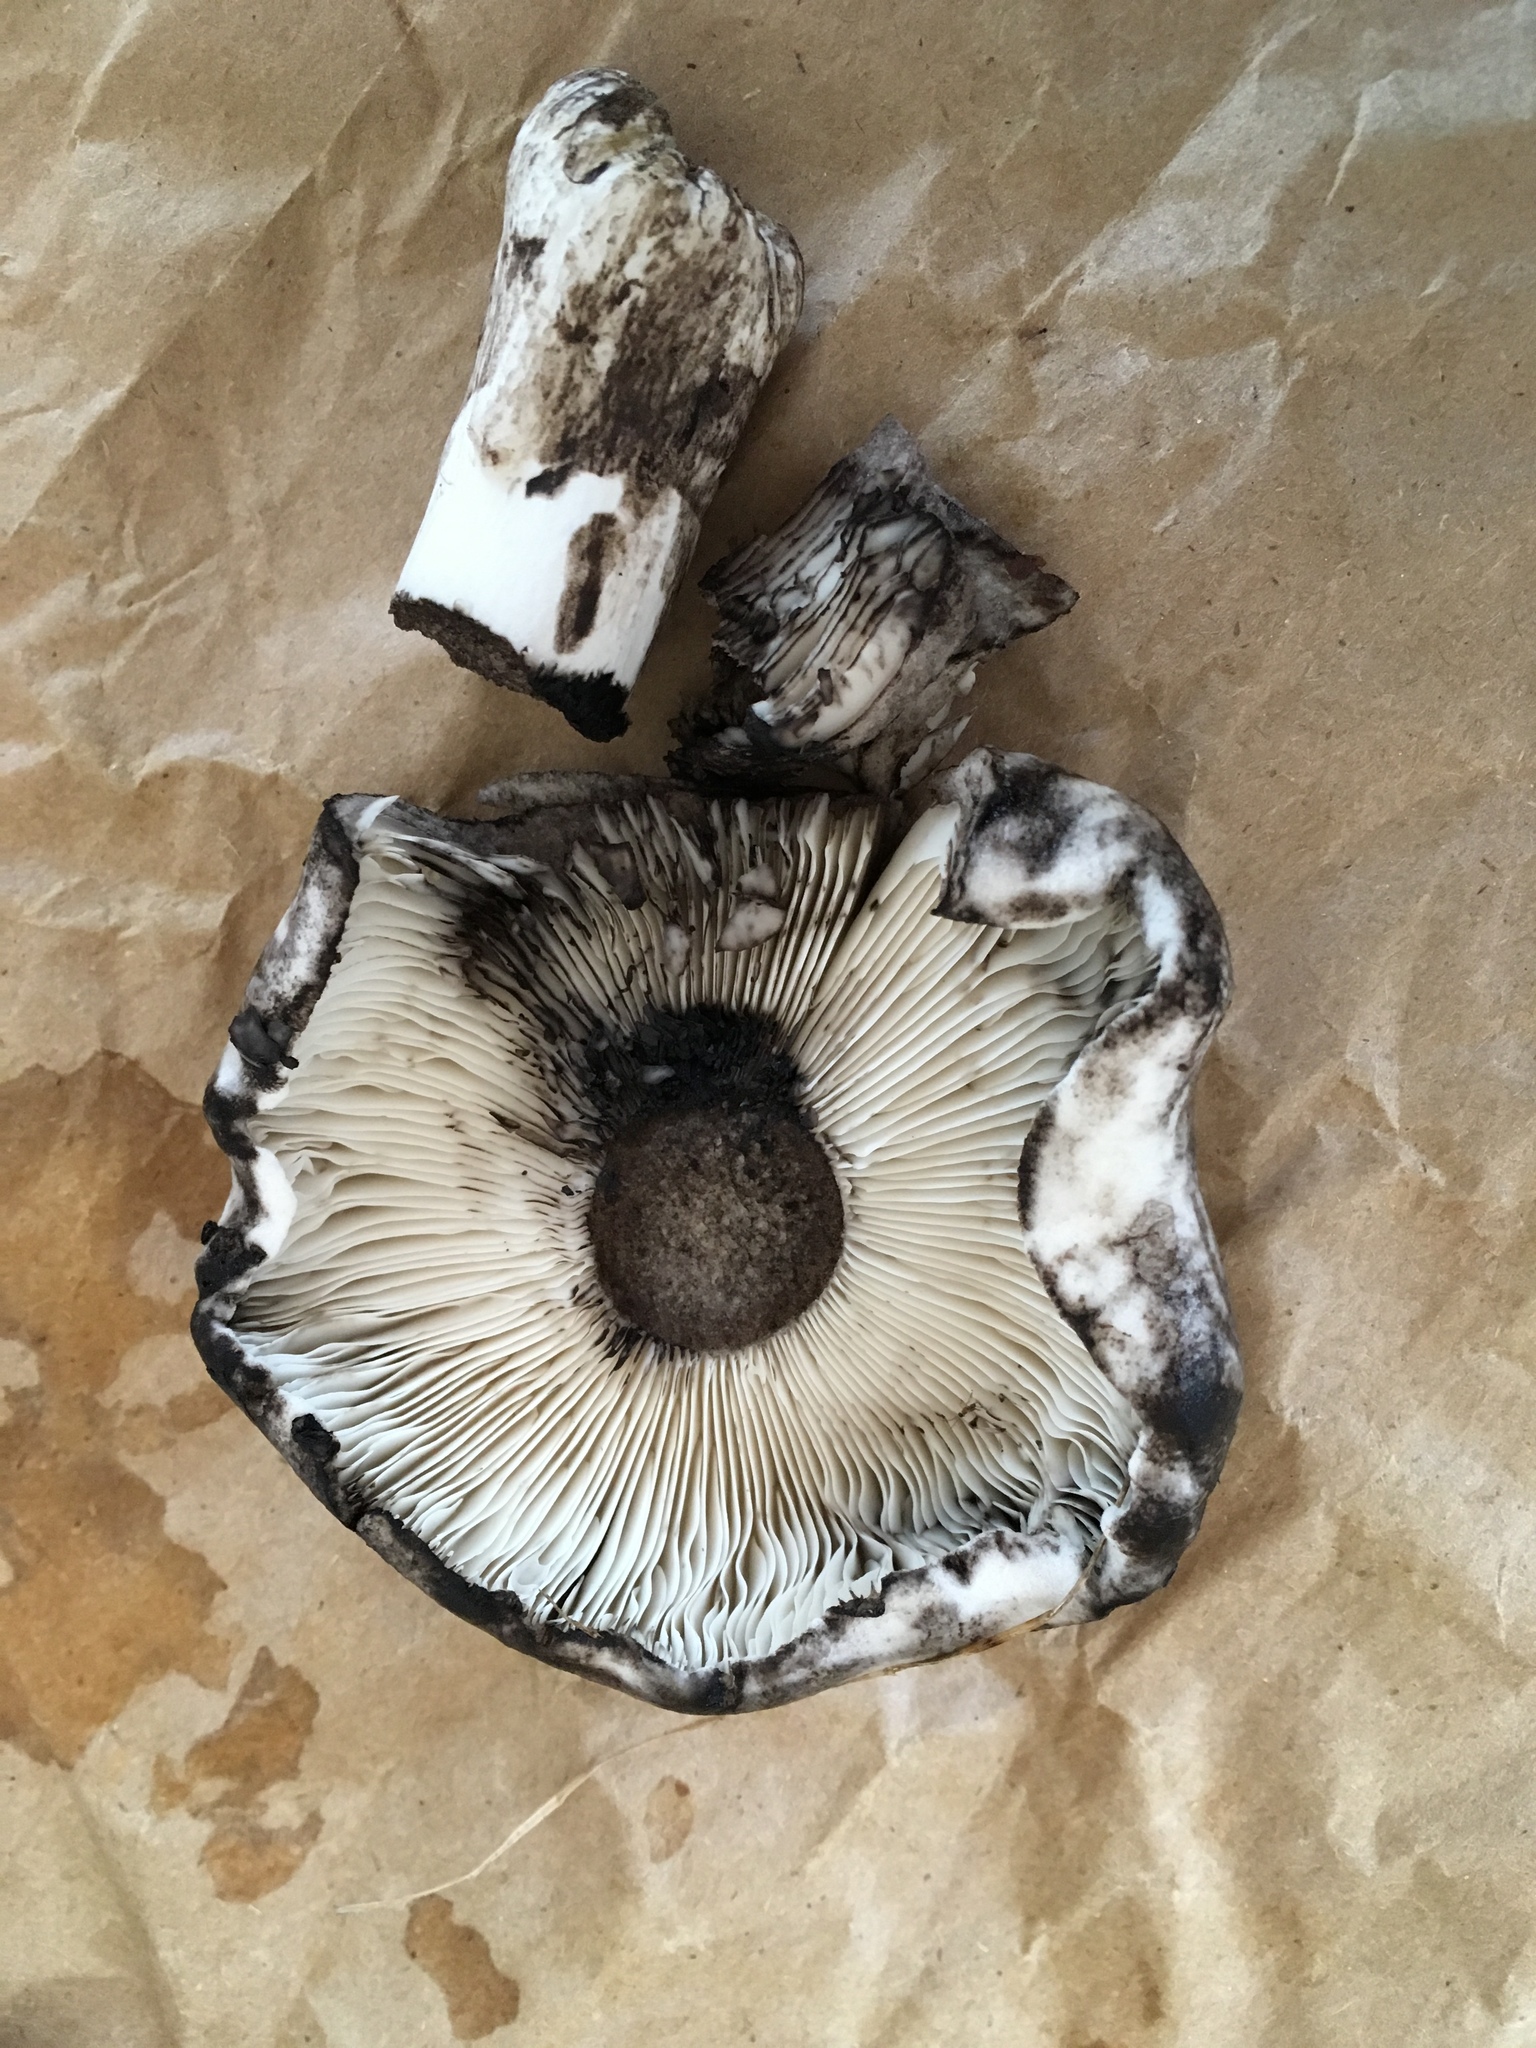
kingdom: Fungi
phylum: Basidiomycota
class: Agaricomycetes
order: Russulales
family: Russulaceae
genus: Russula
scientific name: Russula albonigra
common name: Menthol brittlegill
